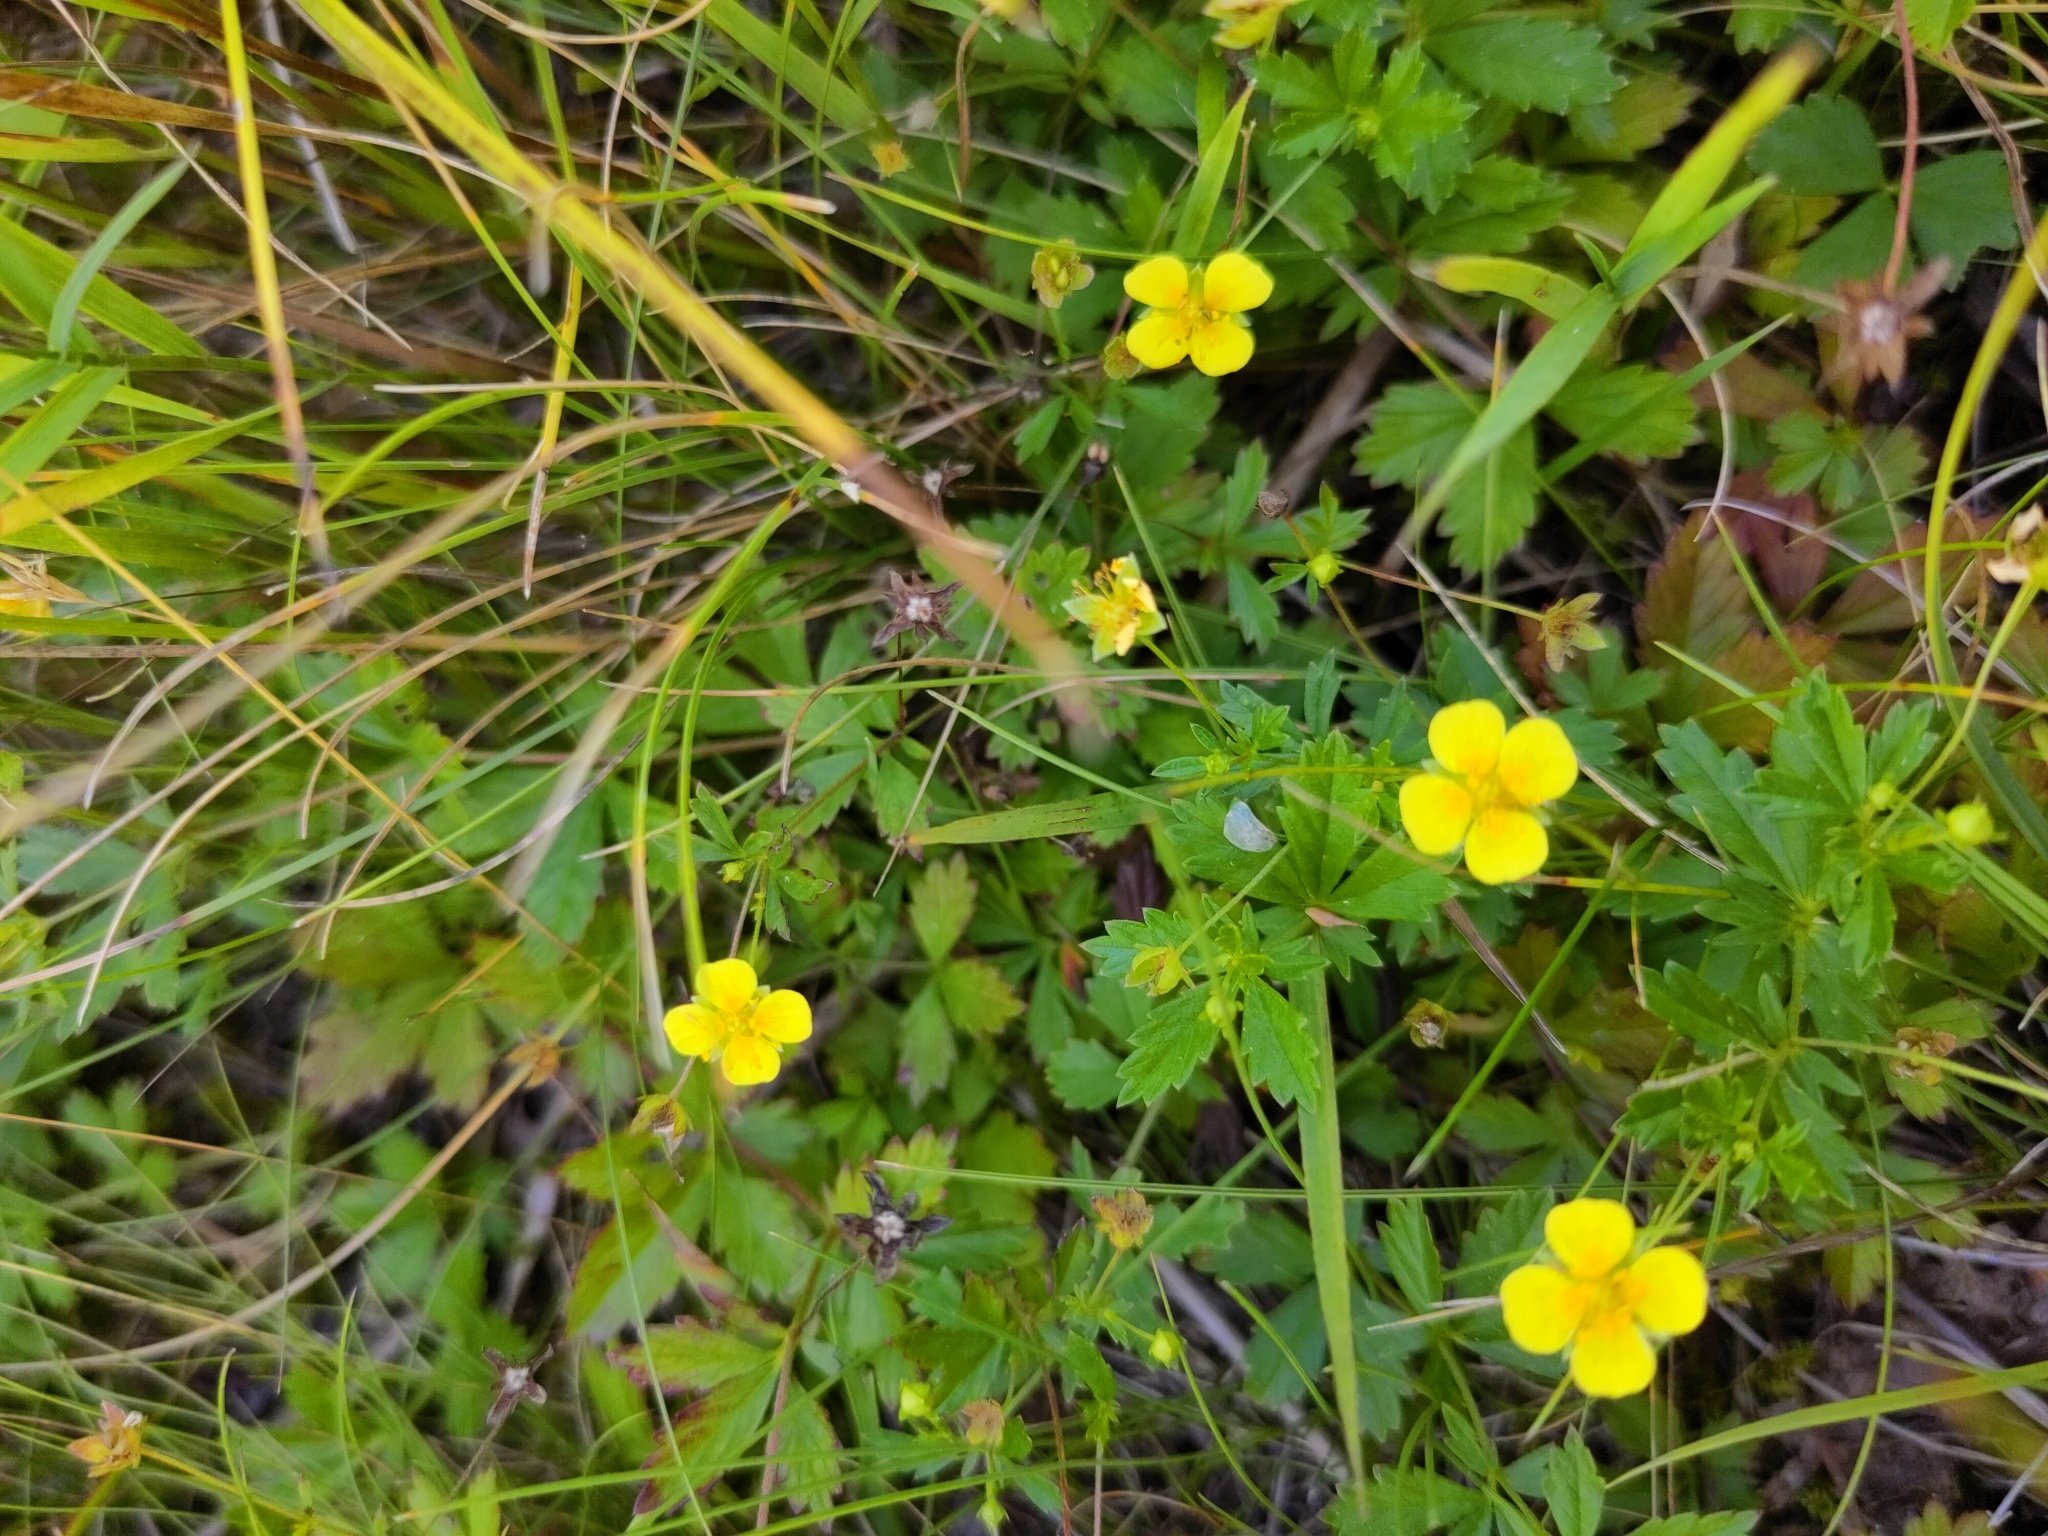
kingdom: Plantae
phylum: Tracheophyta
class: Magnoliopsida
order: Rosales
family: Rosaceae
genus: Potentilla
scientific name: Potentilla erecta
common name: Tormentil
